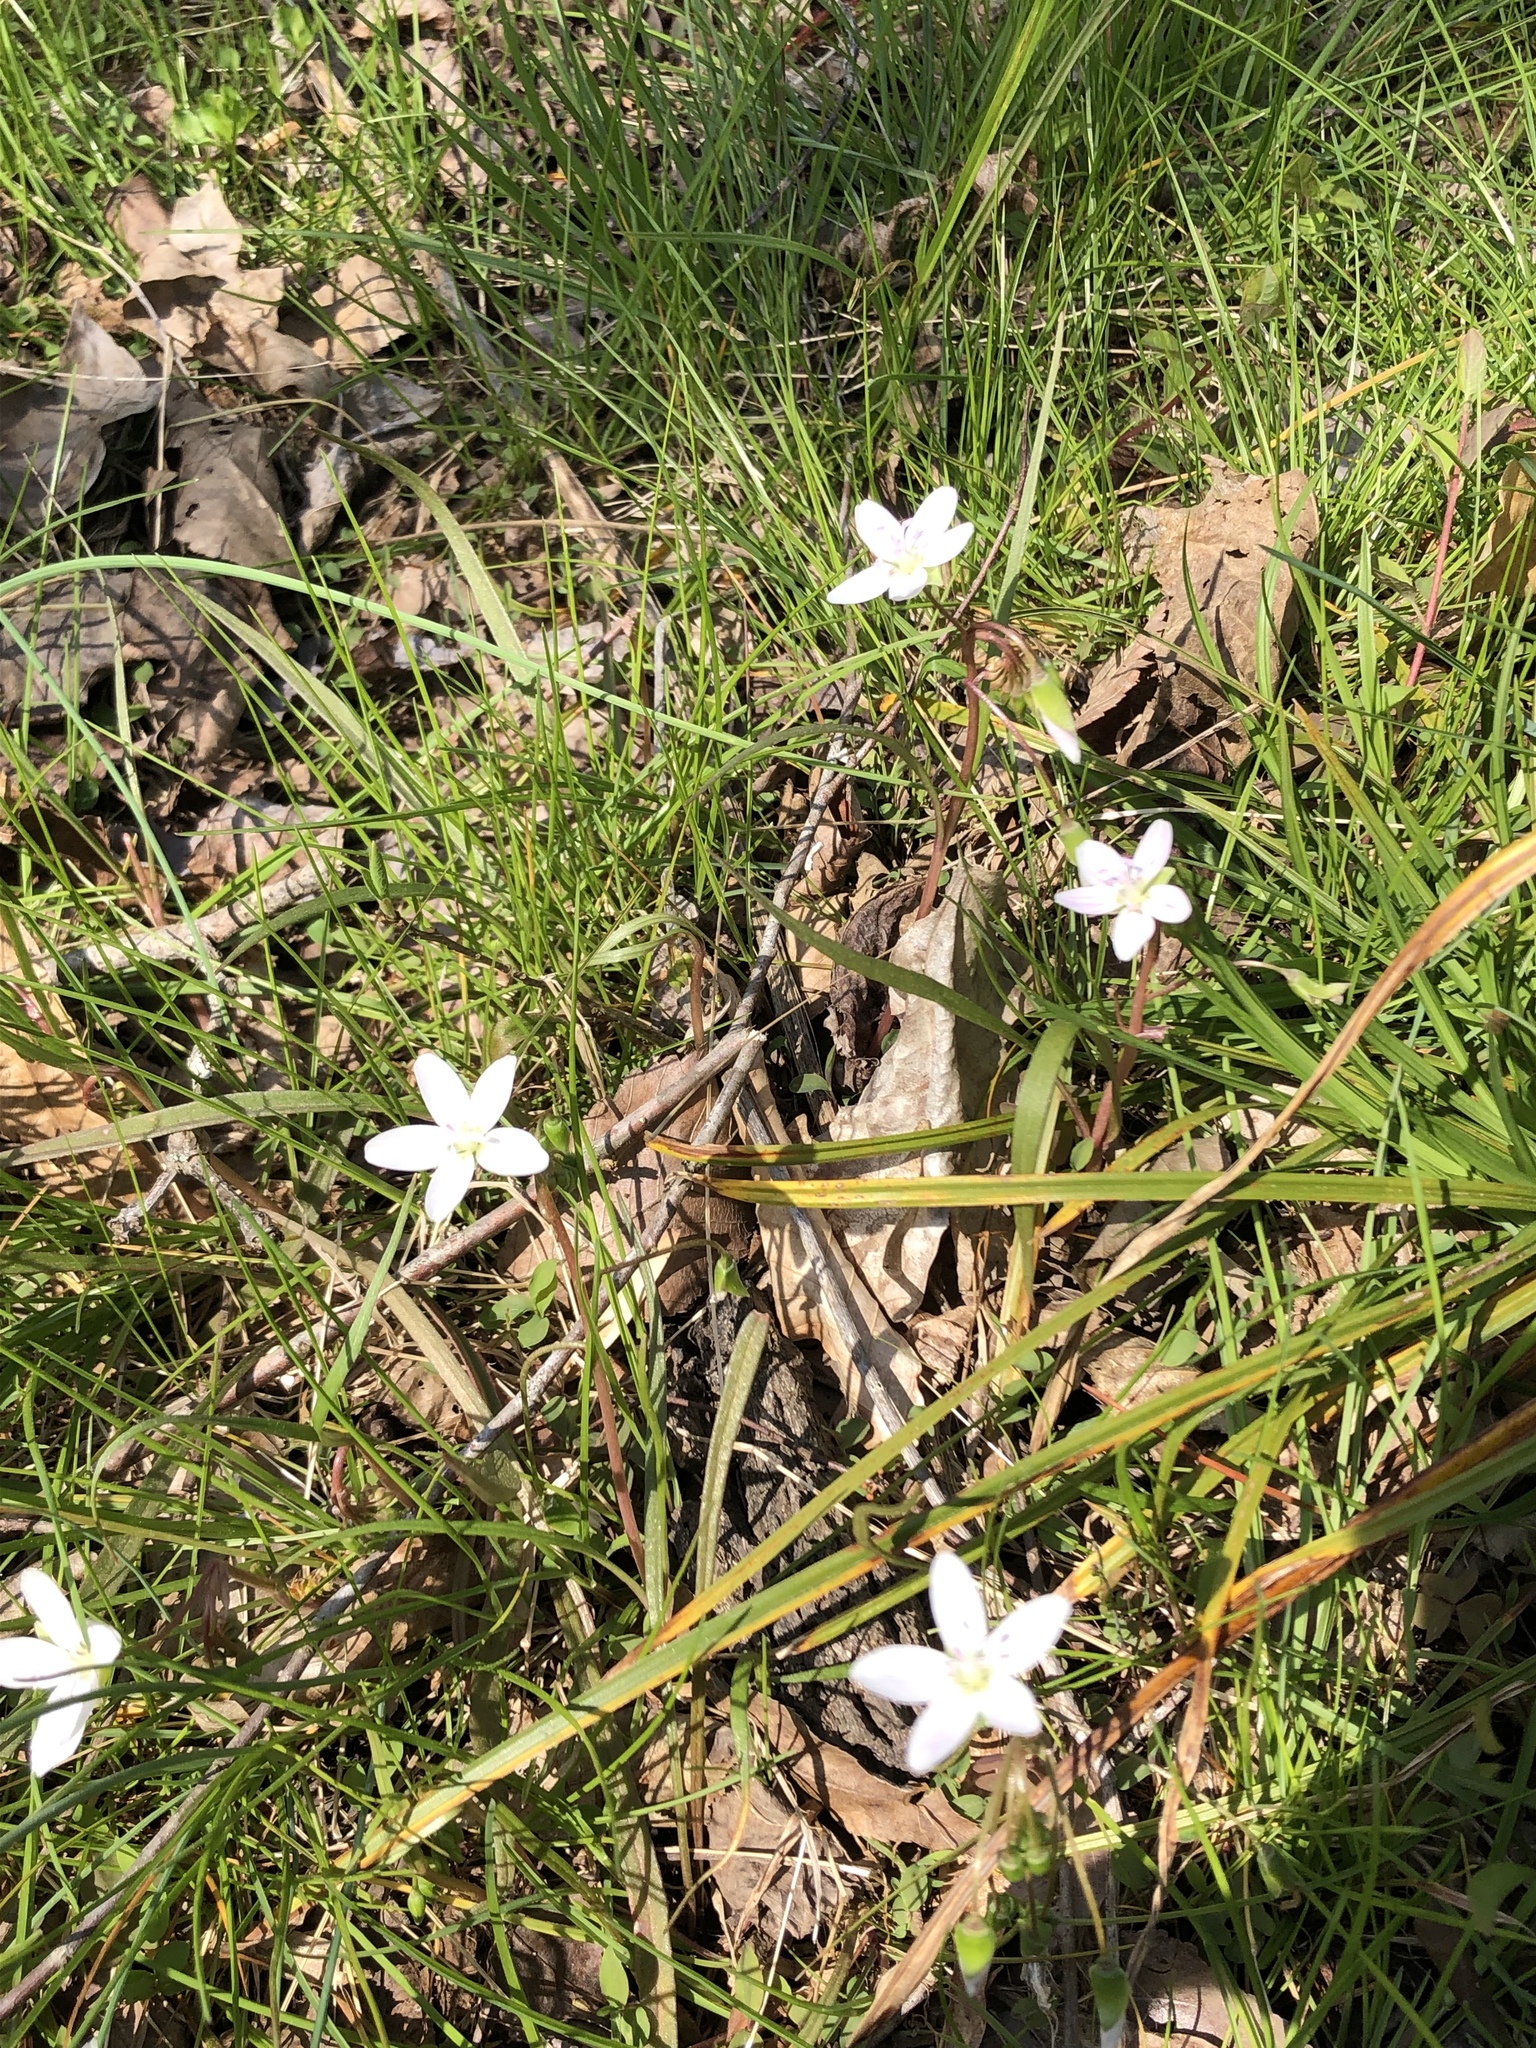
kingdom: Plantae
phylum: Tracheophyta
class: Magnoliopsida
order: Caryophyllales
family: Montiaceae
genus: Claytonia
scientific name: Claytonia virginica
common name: Virginia springbeauty
